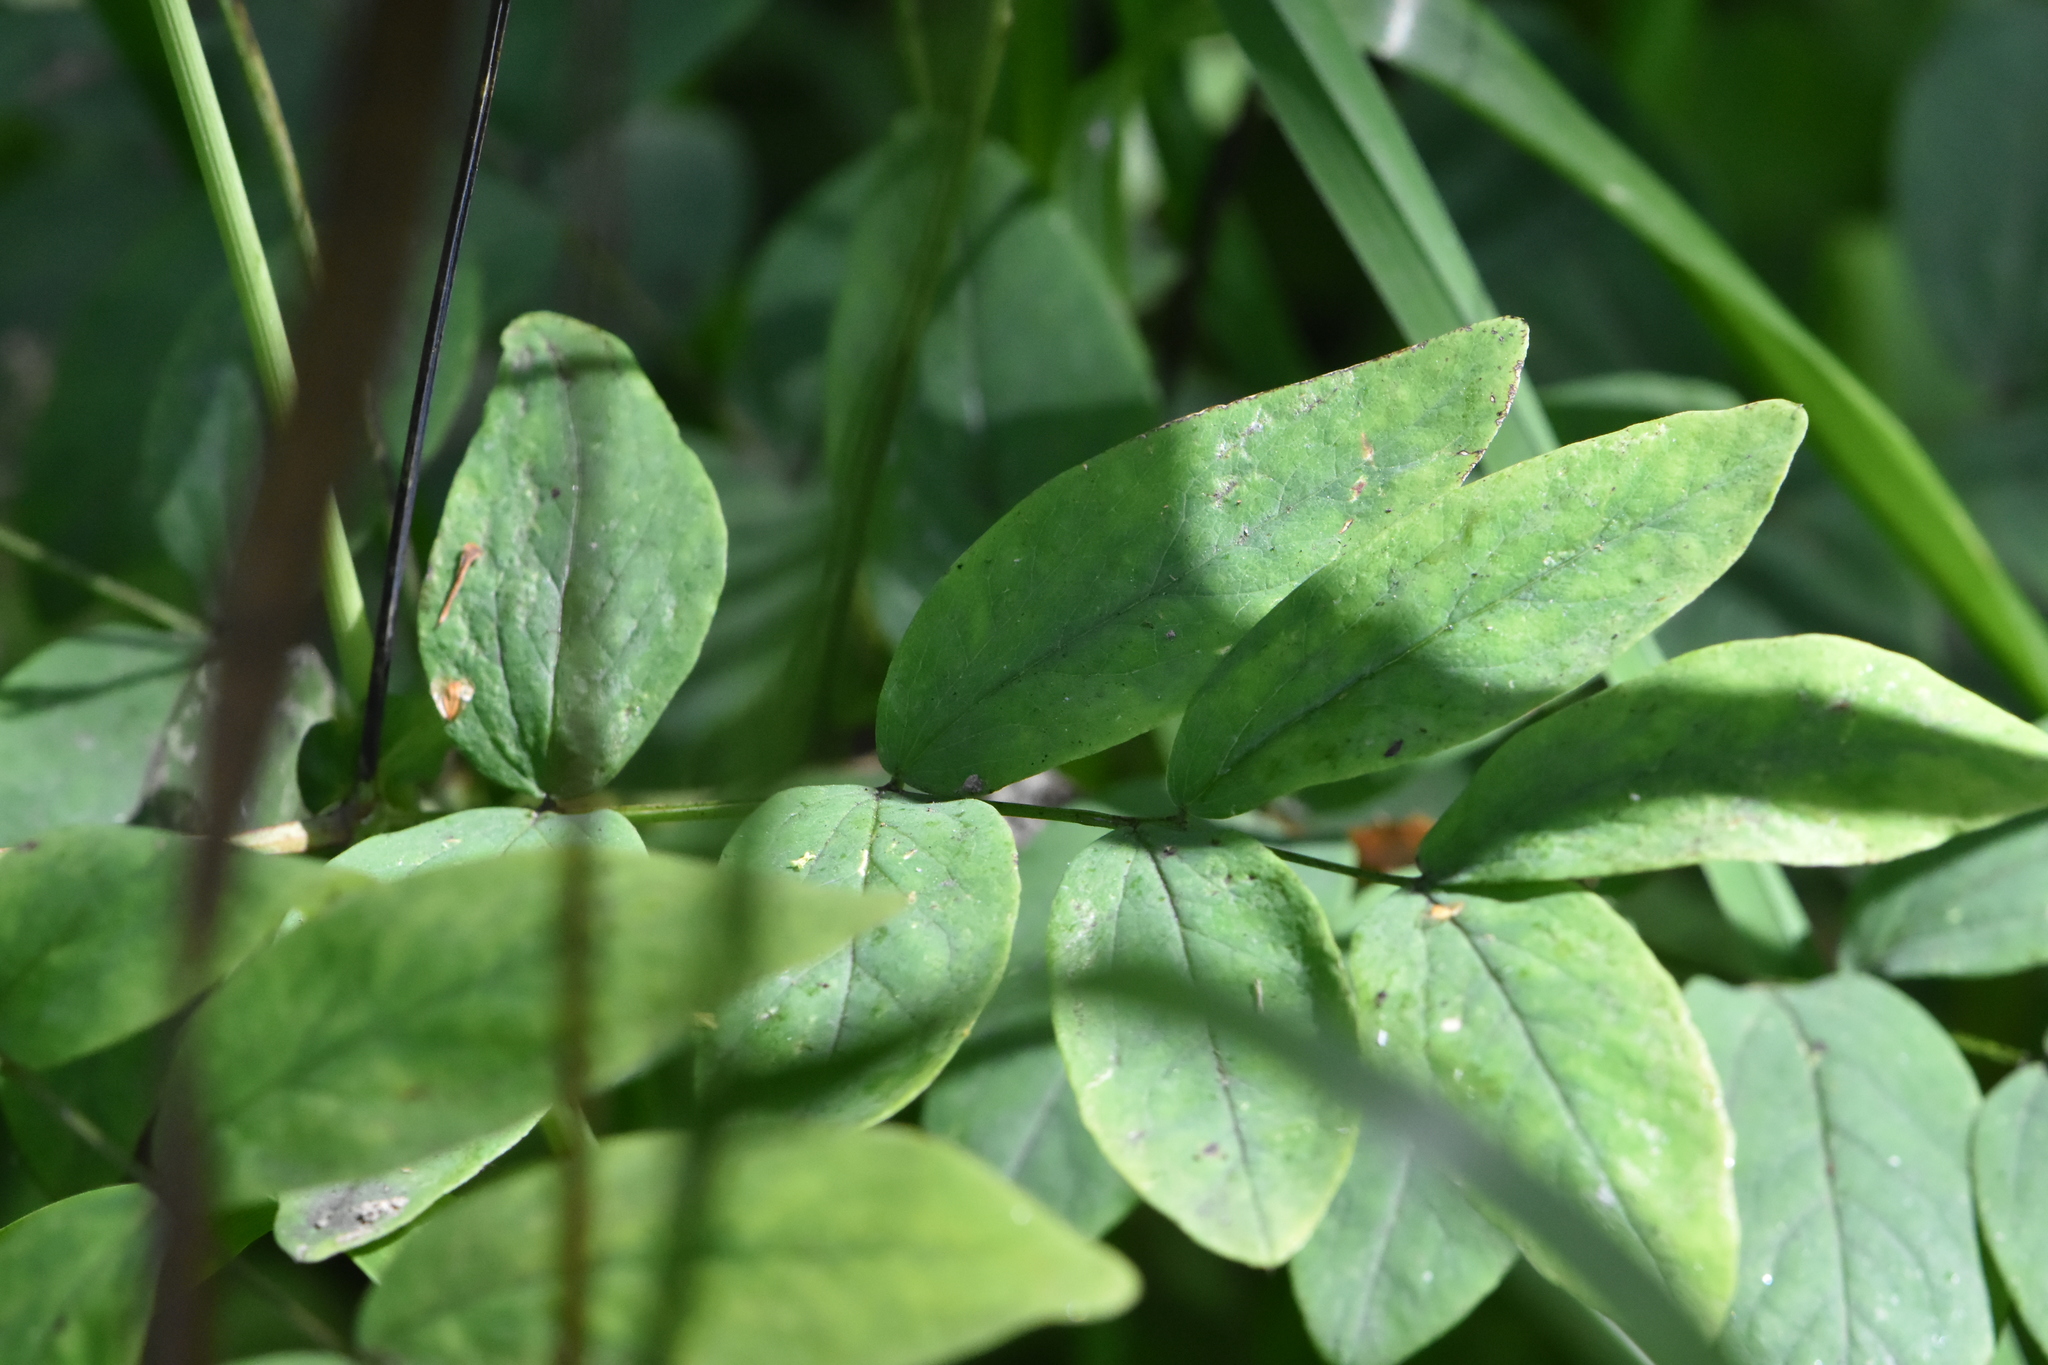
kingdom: Plantae
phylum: Tracheophyta
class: Magnoliopsida
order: Fabales
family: Fabaceae
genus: Lathyrus
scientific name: Lathyrus gmelinii
